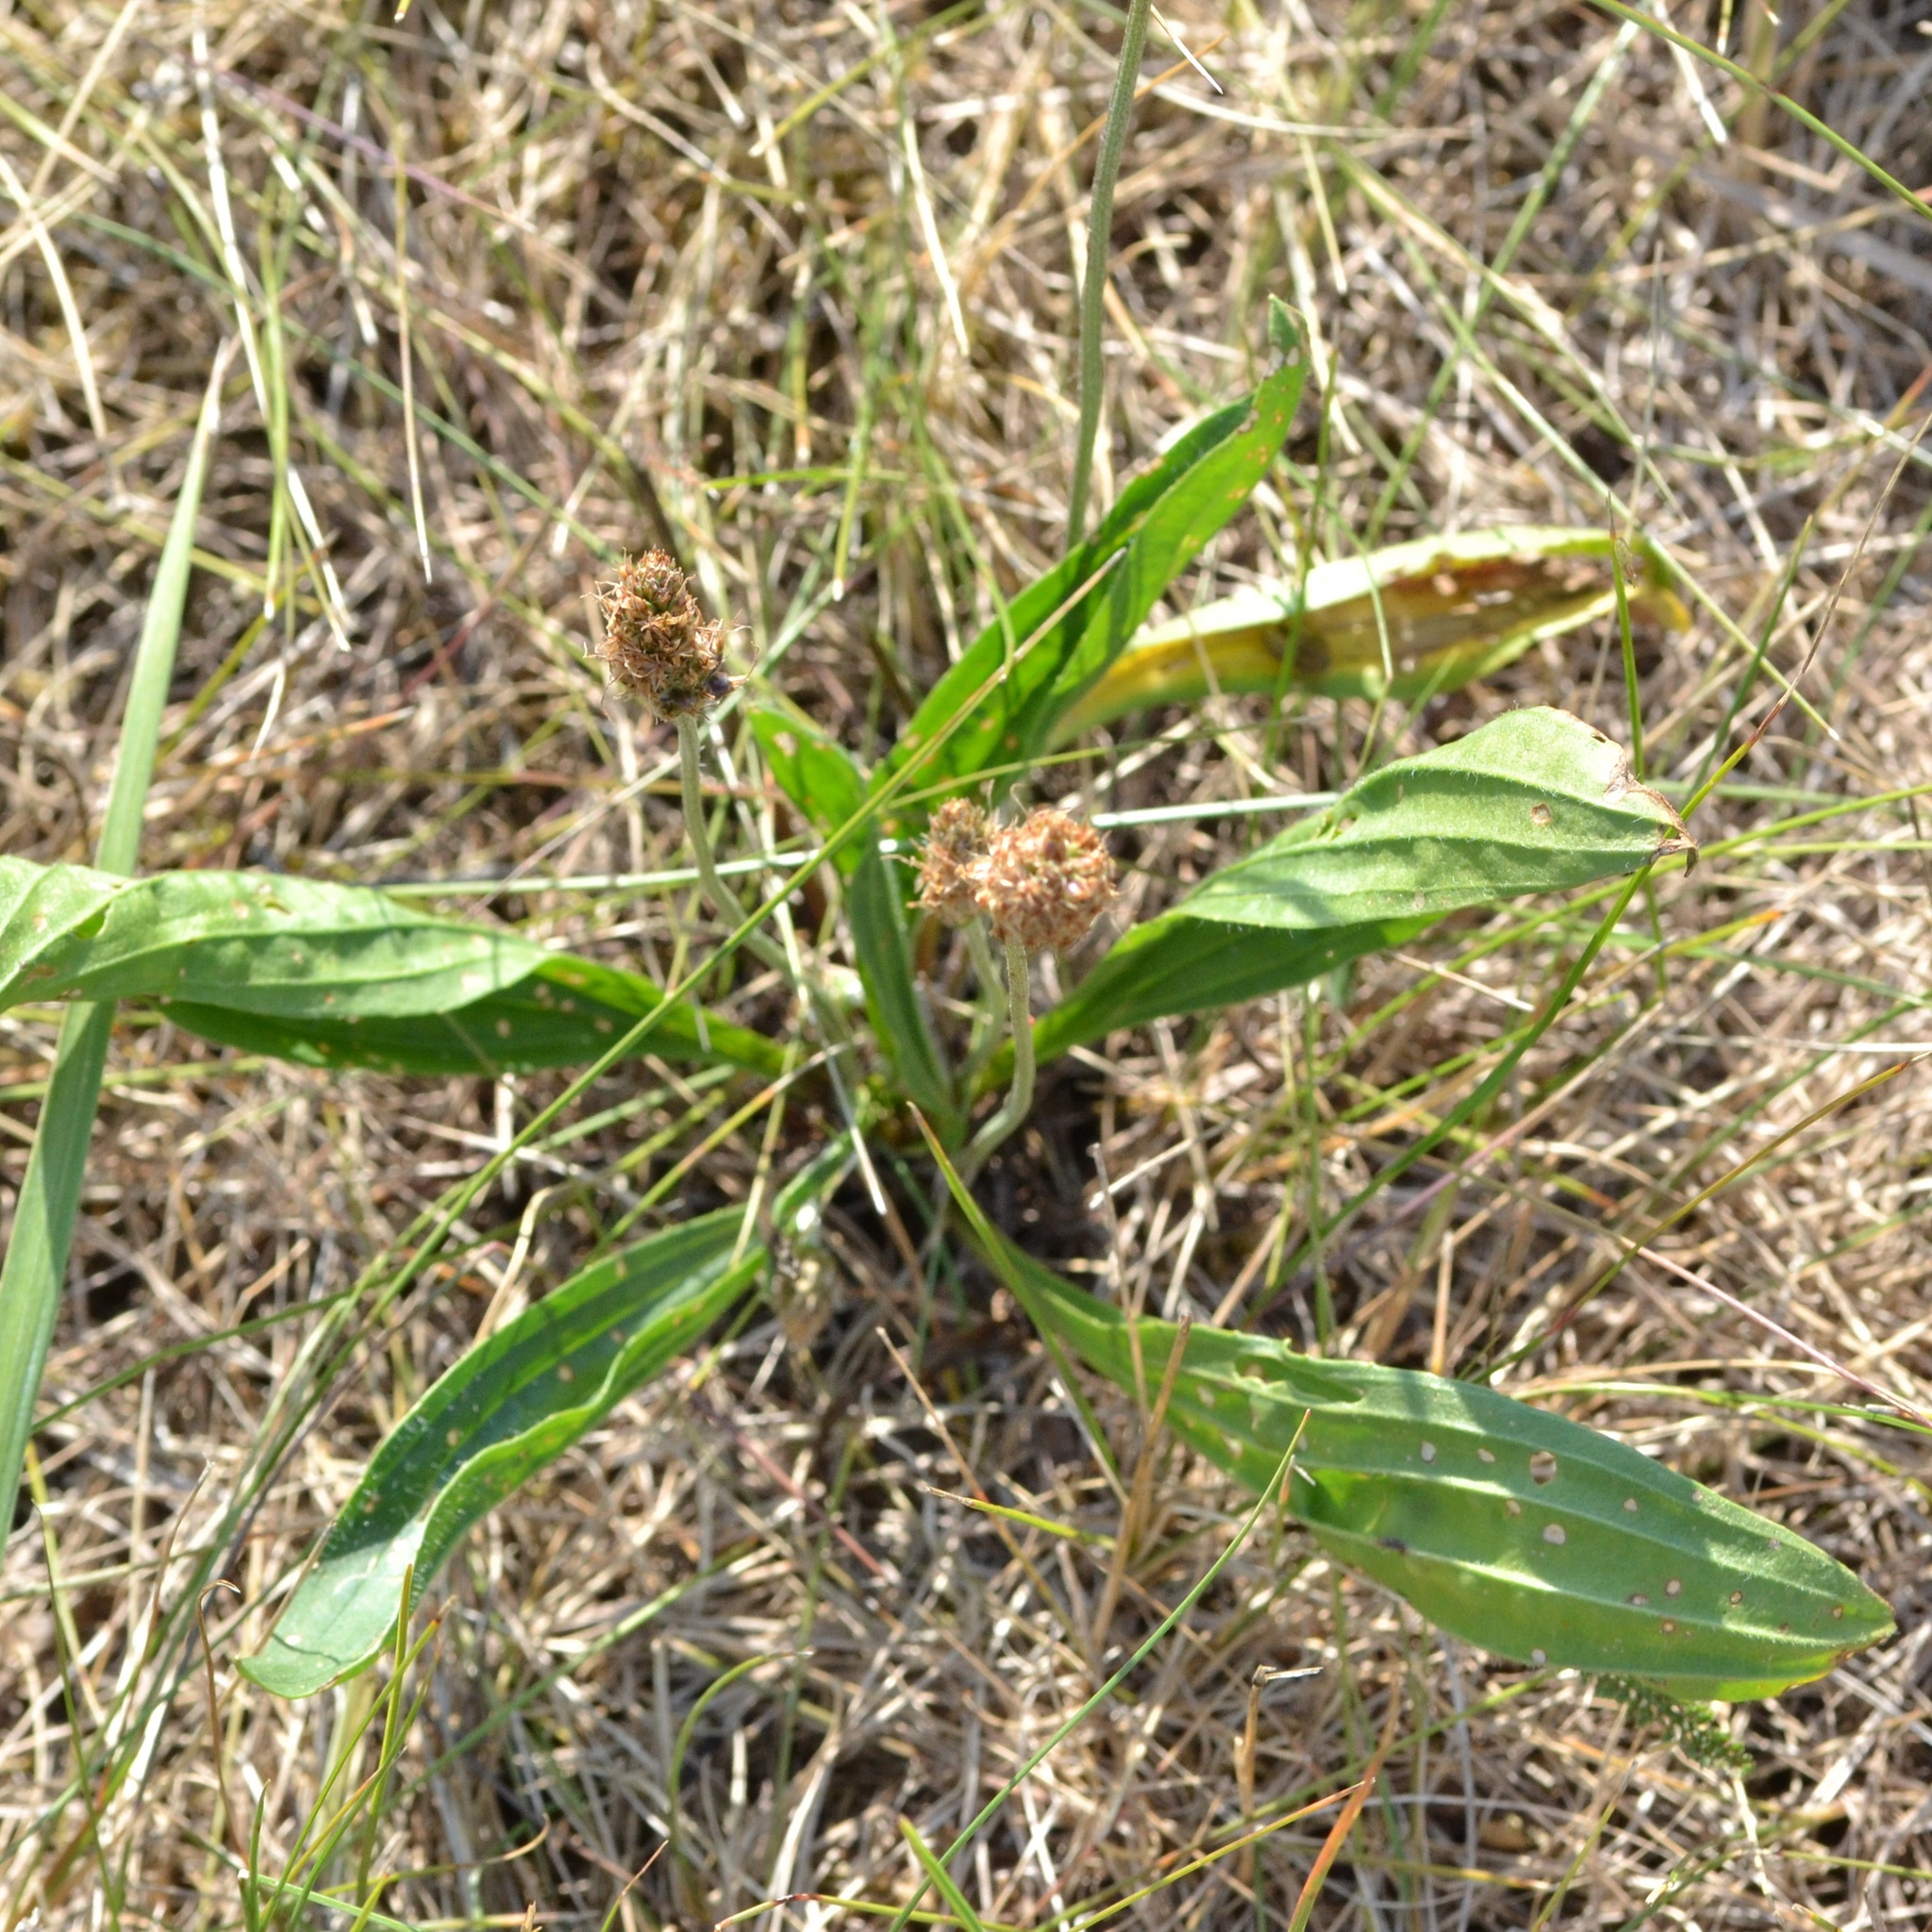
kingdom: Plantae
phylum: Tracheophyta
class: Magnoliopsida
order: Lamiales
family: Plantaginaceae
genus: Plantago
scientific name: Plantago lanceolata
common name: Ribwort plantain
